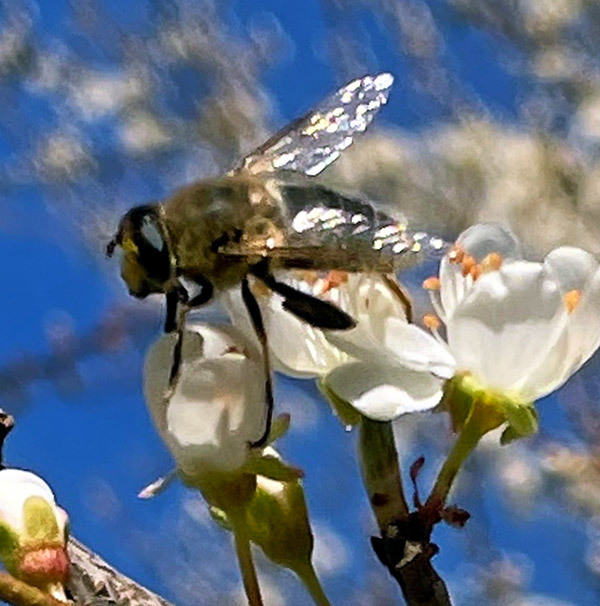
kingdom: Animalia
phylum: Arthropoda
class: Insecta
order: Diptera
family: Syrphidae
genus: Eristalis
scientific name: Eristalis tenax
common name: Drone fly
